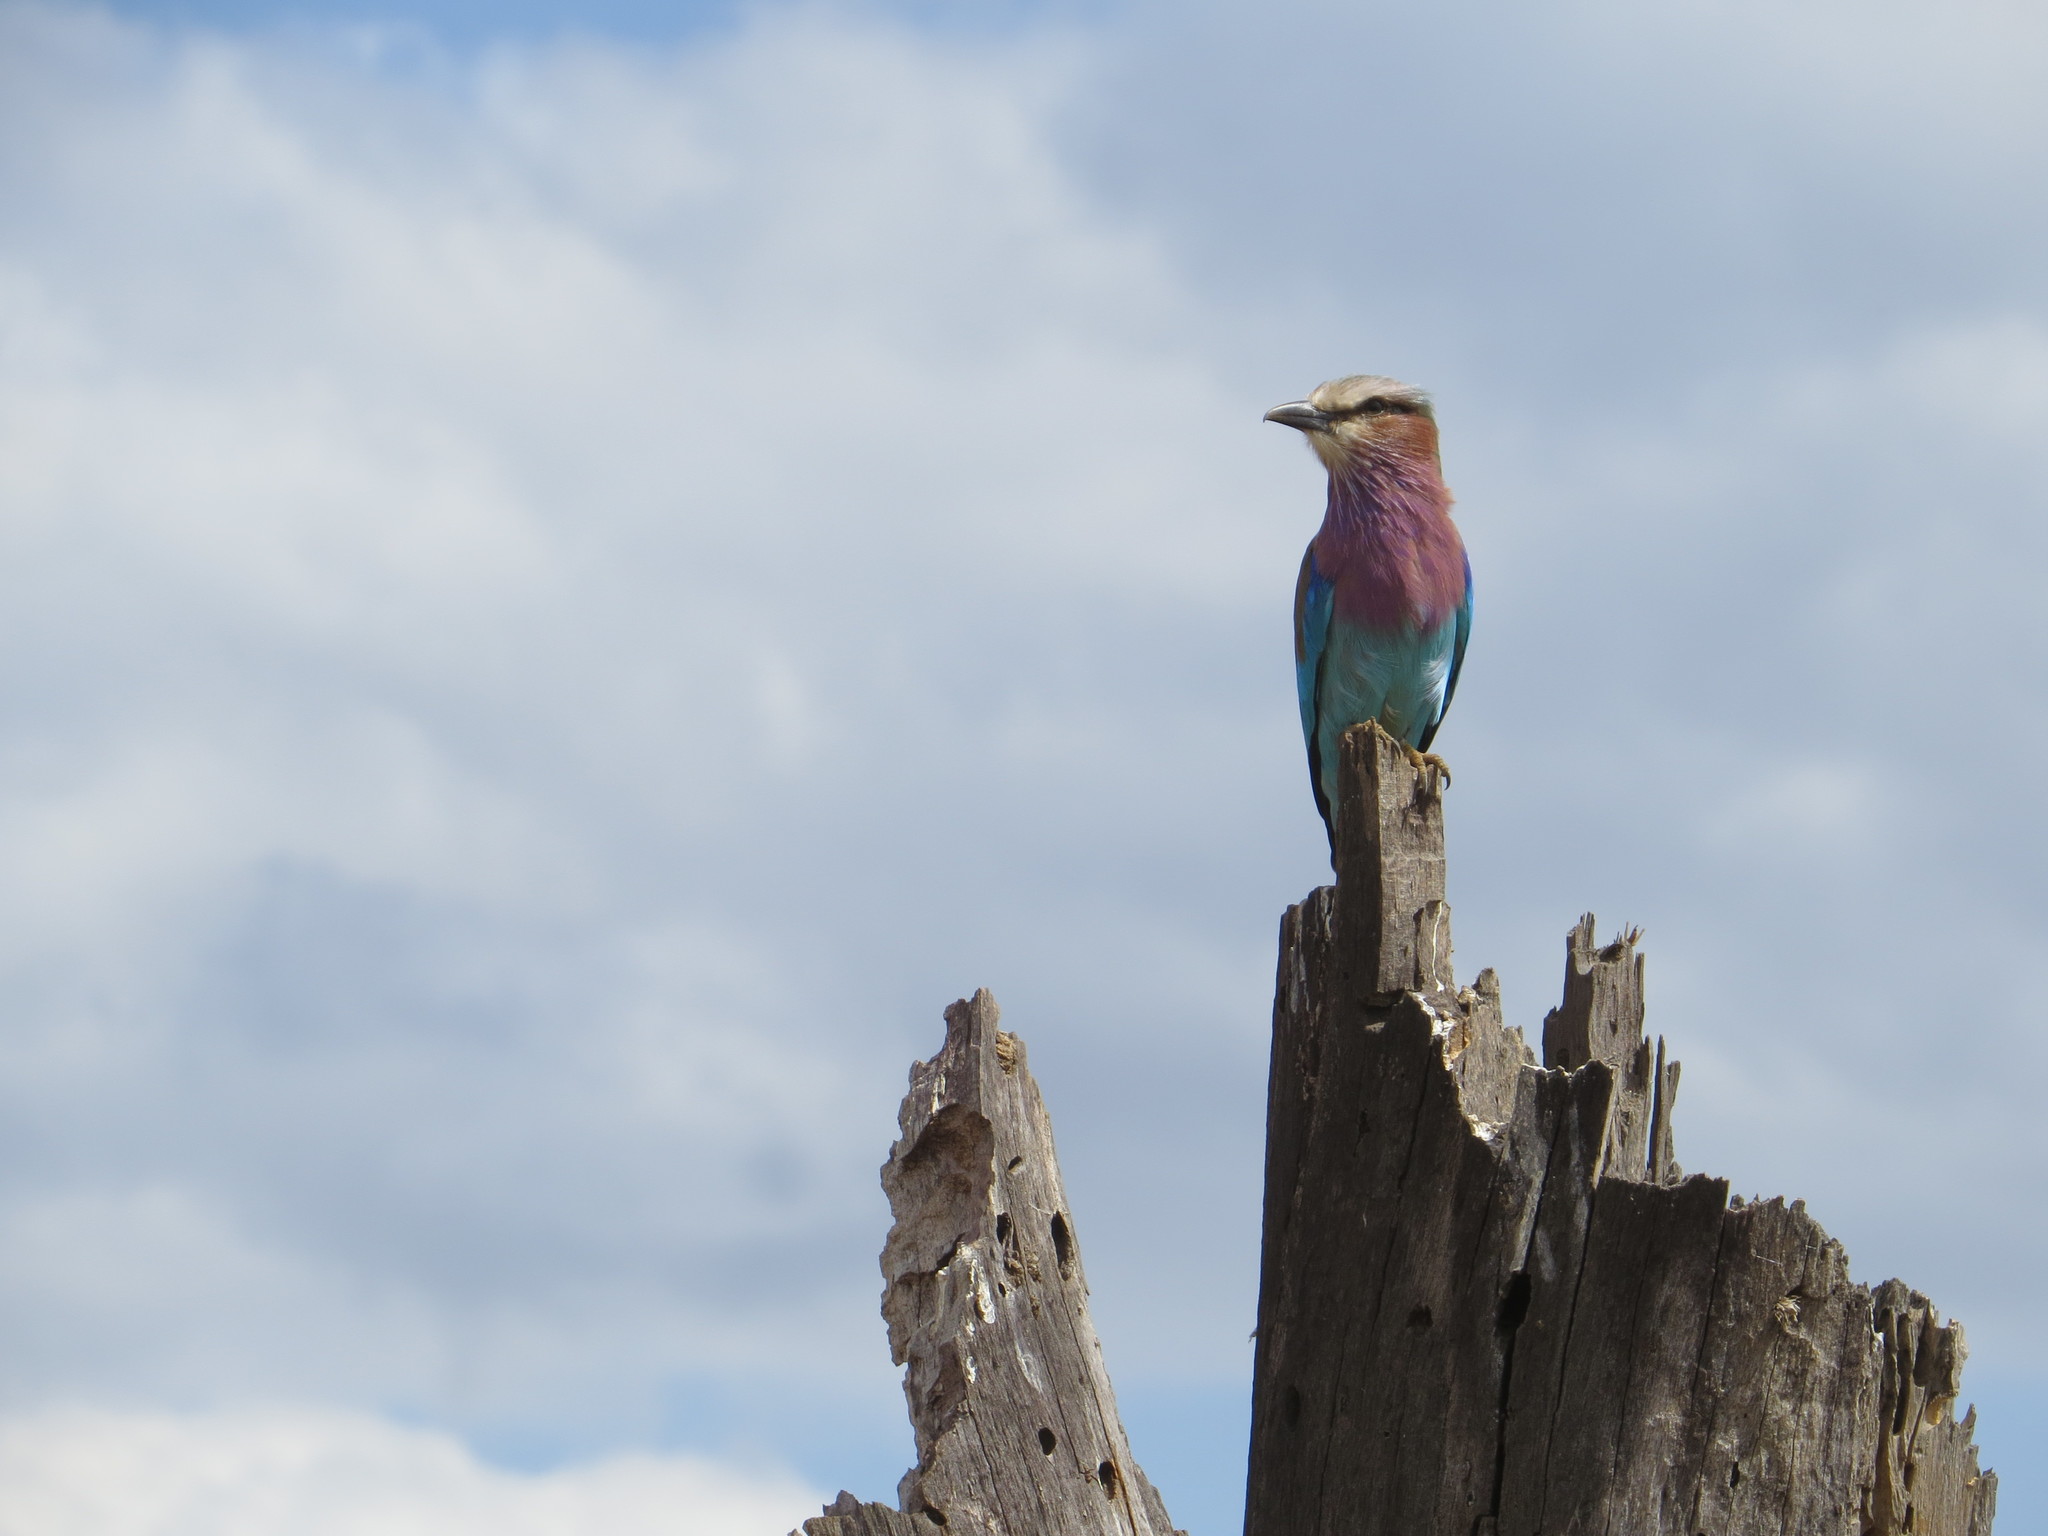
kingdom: Animalia
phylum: Chordata
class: Aves
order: Coraciiformes
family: Coraciidae
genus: Coracias
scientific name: Coracias caudatus
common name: Lilac-breasted roller
